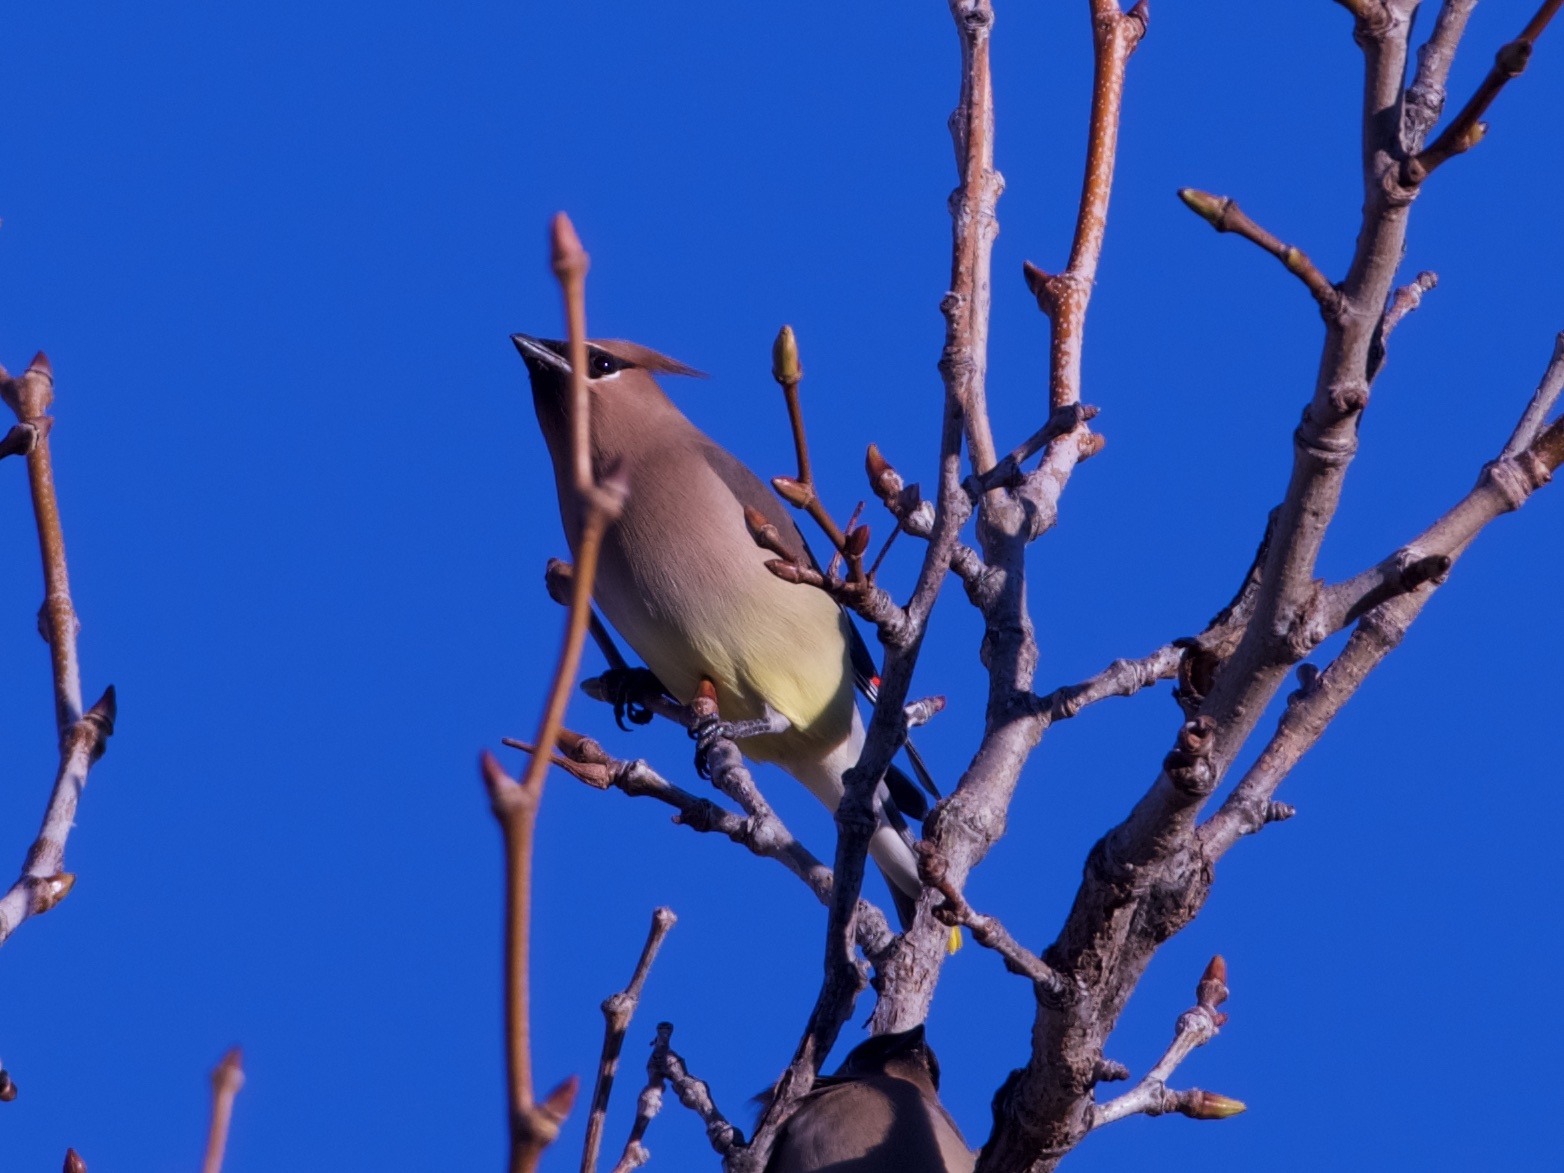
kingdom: Animalia
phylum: Chordata
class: Aves
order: Passeriformes
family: Bombycillidae
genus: Bombycilla
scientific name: Bombycilla cedrorum
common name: Cedar waxwing
